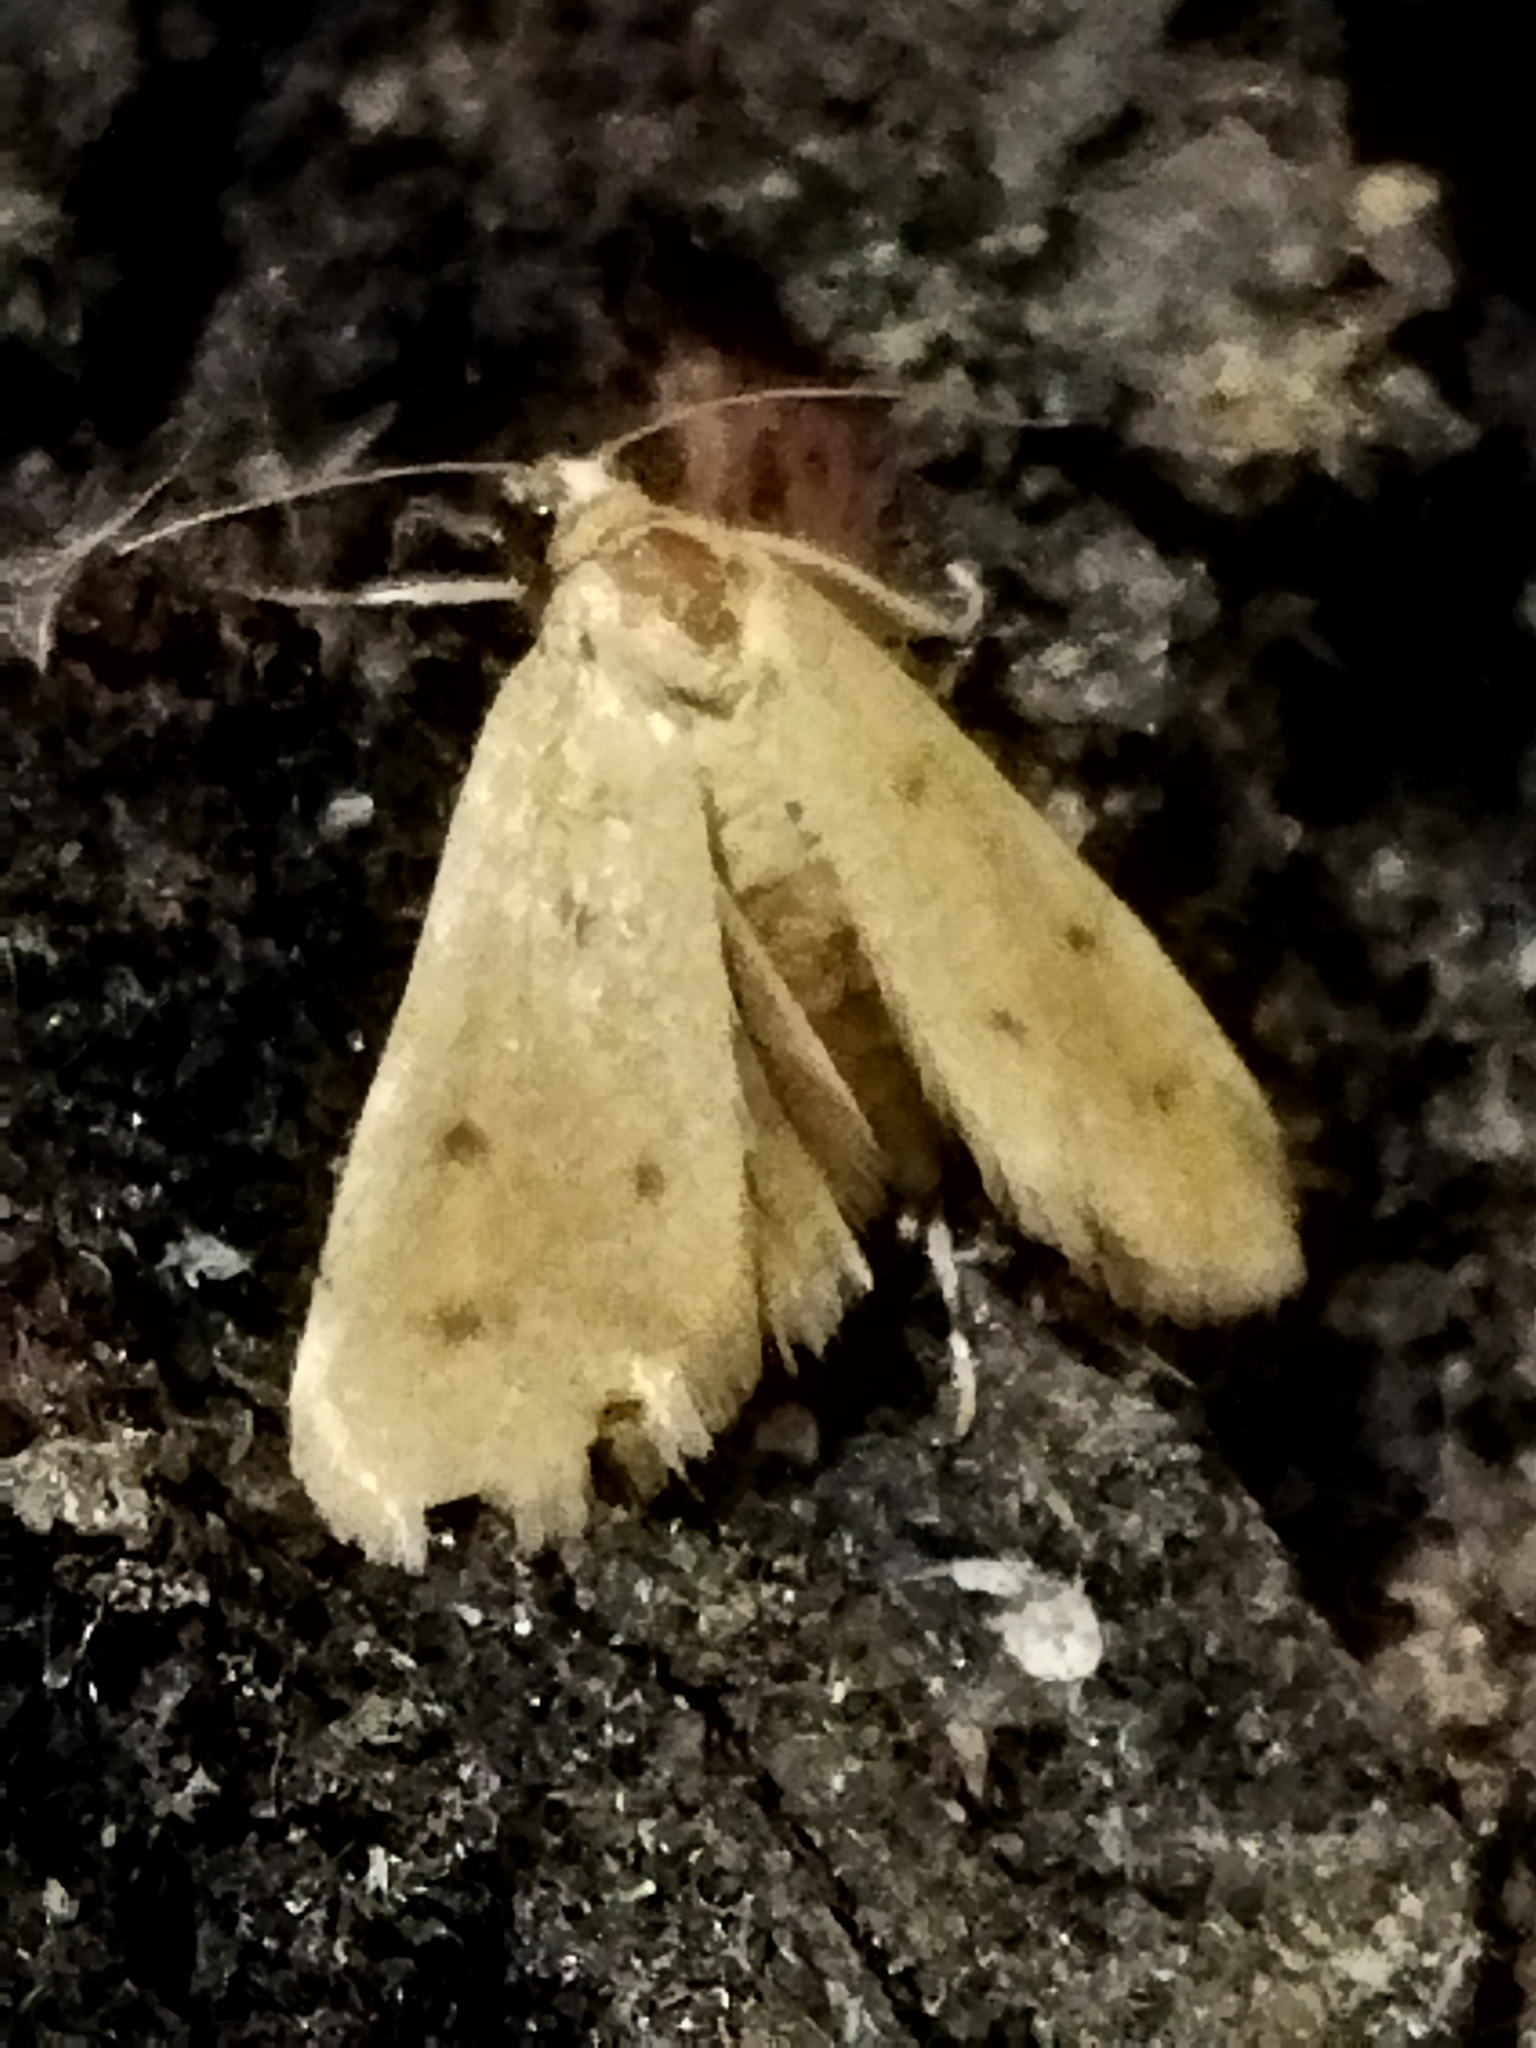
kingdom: Animalia
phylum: Arthropoda
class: Insecta
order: Lepidoptera
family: Crambidae
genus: Achyra
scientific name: Achyra nudalis
